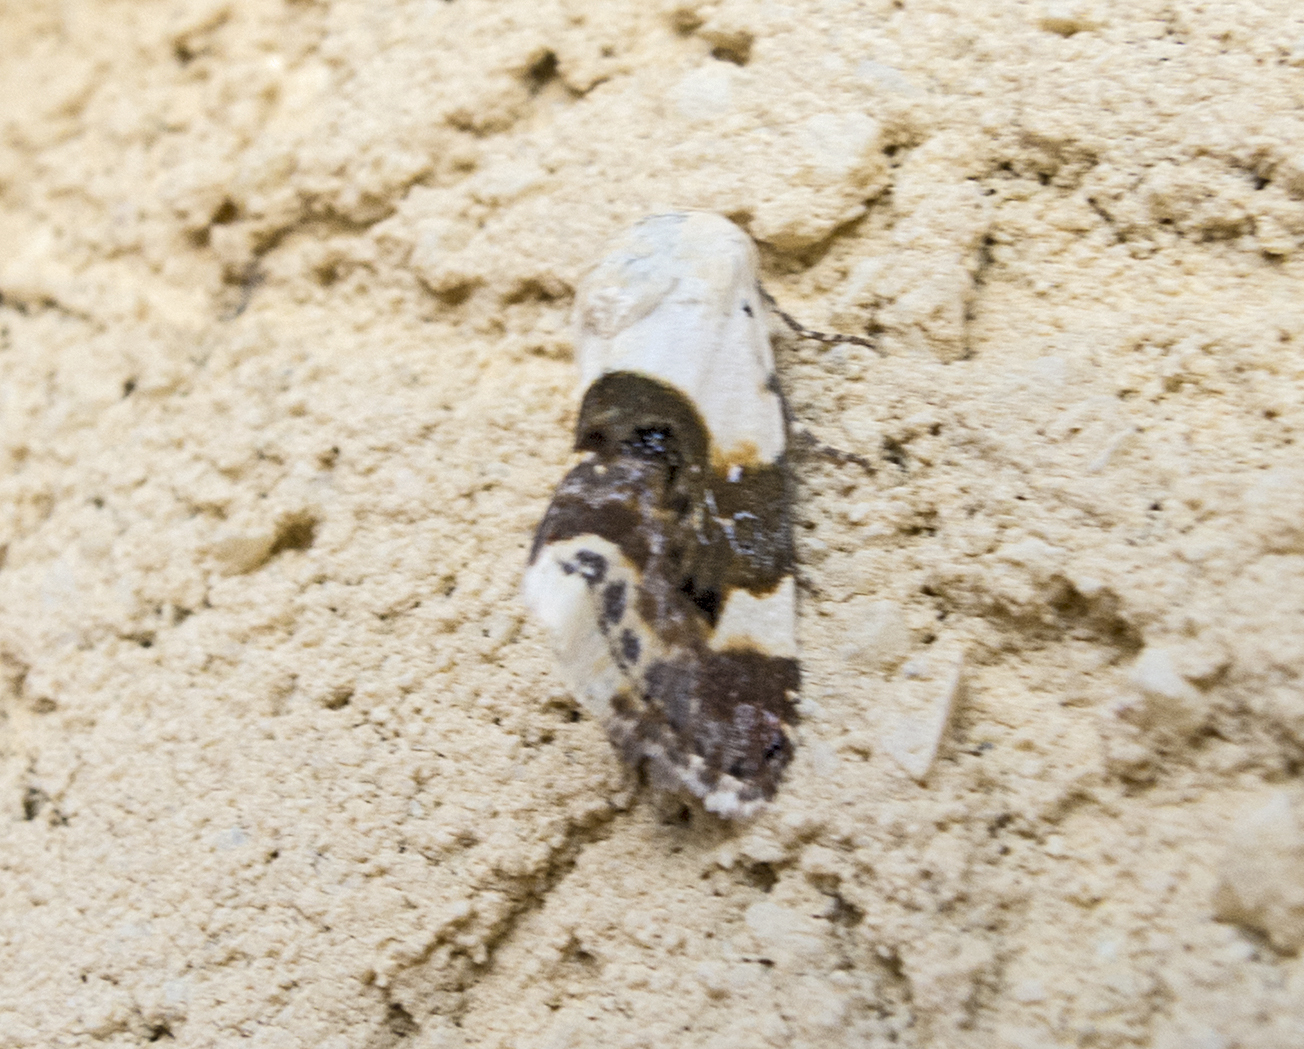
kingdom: Animalia
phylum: Arthropoda
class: Insecta
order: Lepidoptera
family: Noctuidae
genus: Acontia
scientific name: Acontia lucida
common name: Pale shoulder
